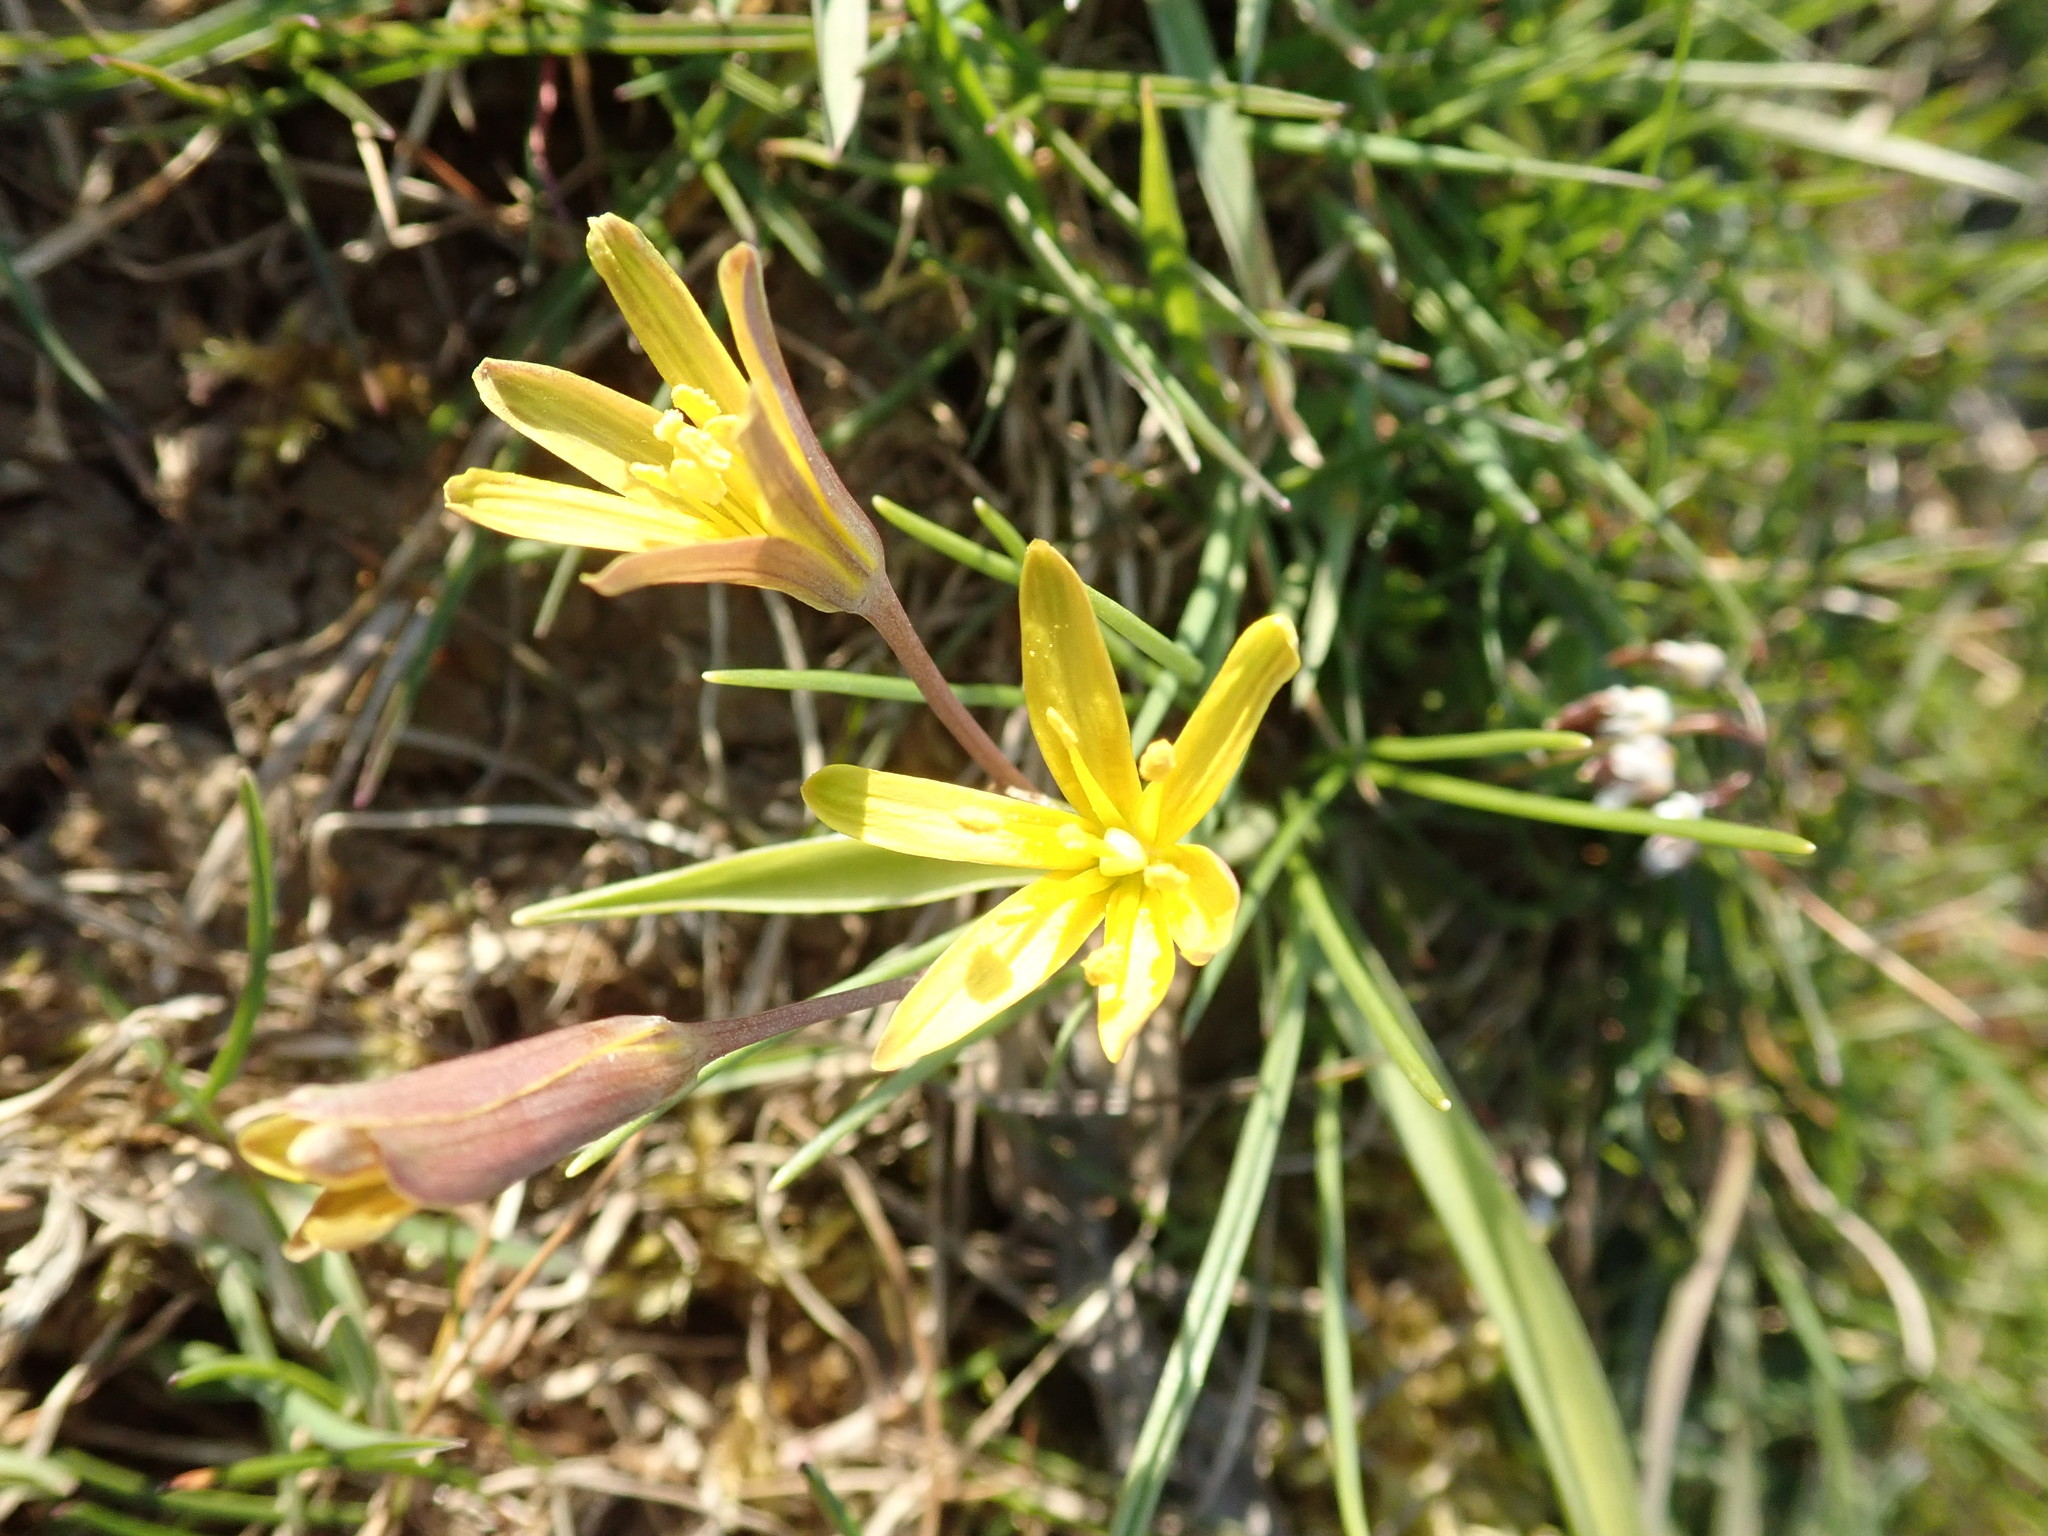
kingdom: Plantae
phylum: Tracheophyta
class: Liliopsida
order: Liliales
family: Liliaceae
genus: Gagea
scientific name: Gagea lutea
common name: Yellow star-of-bethlehem
